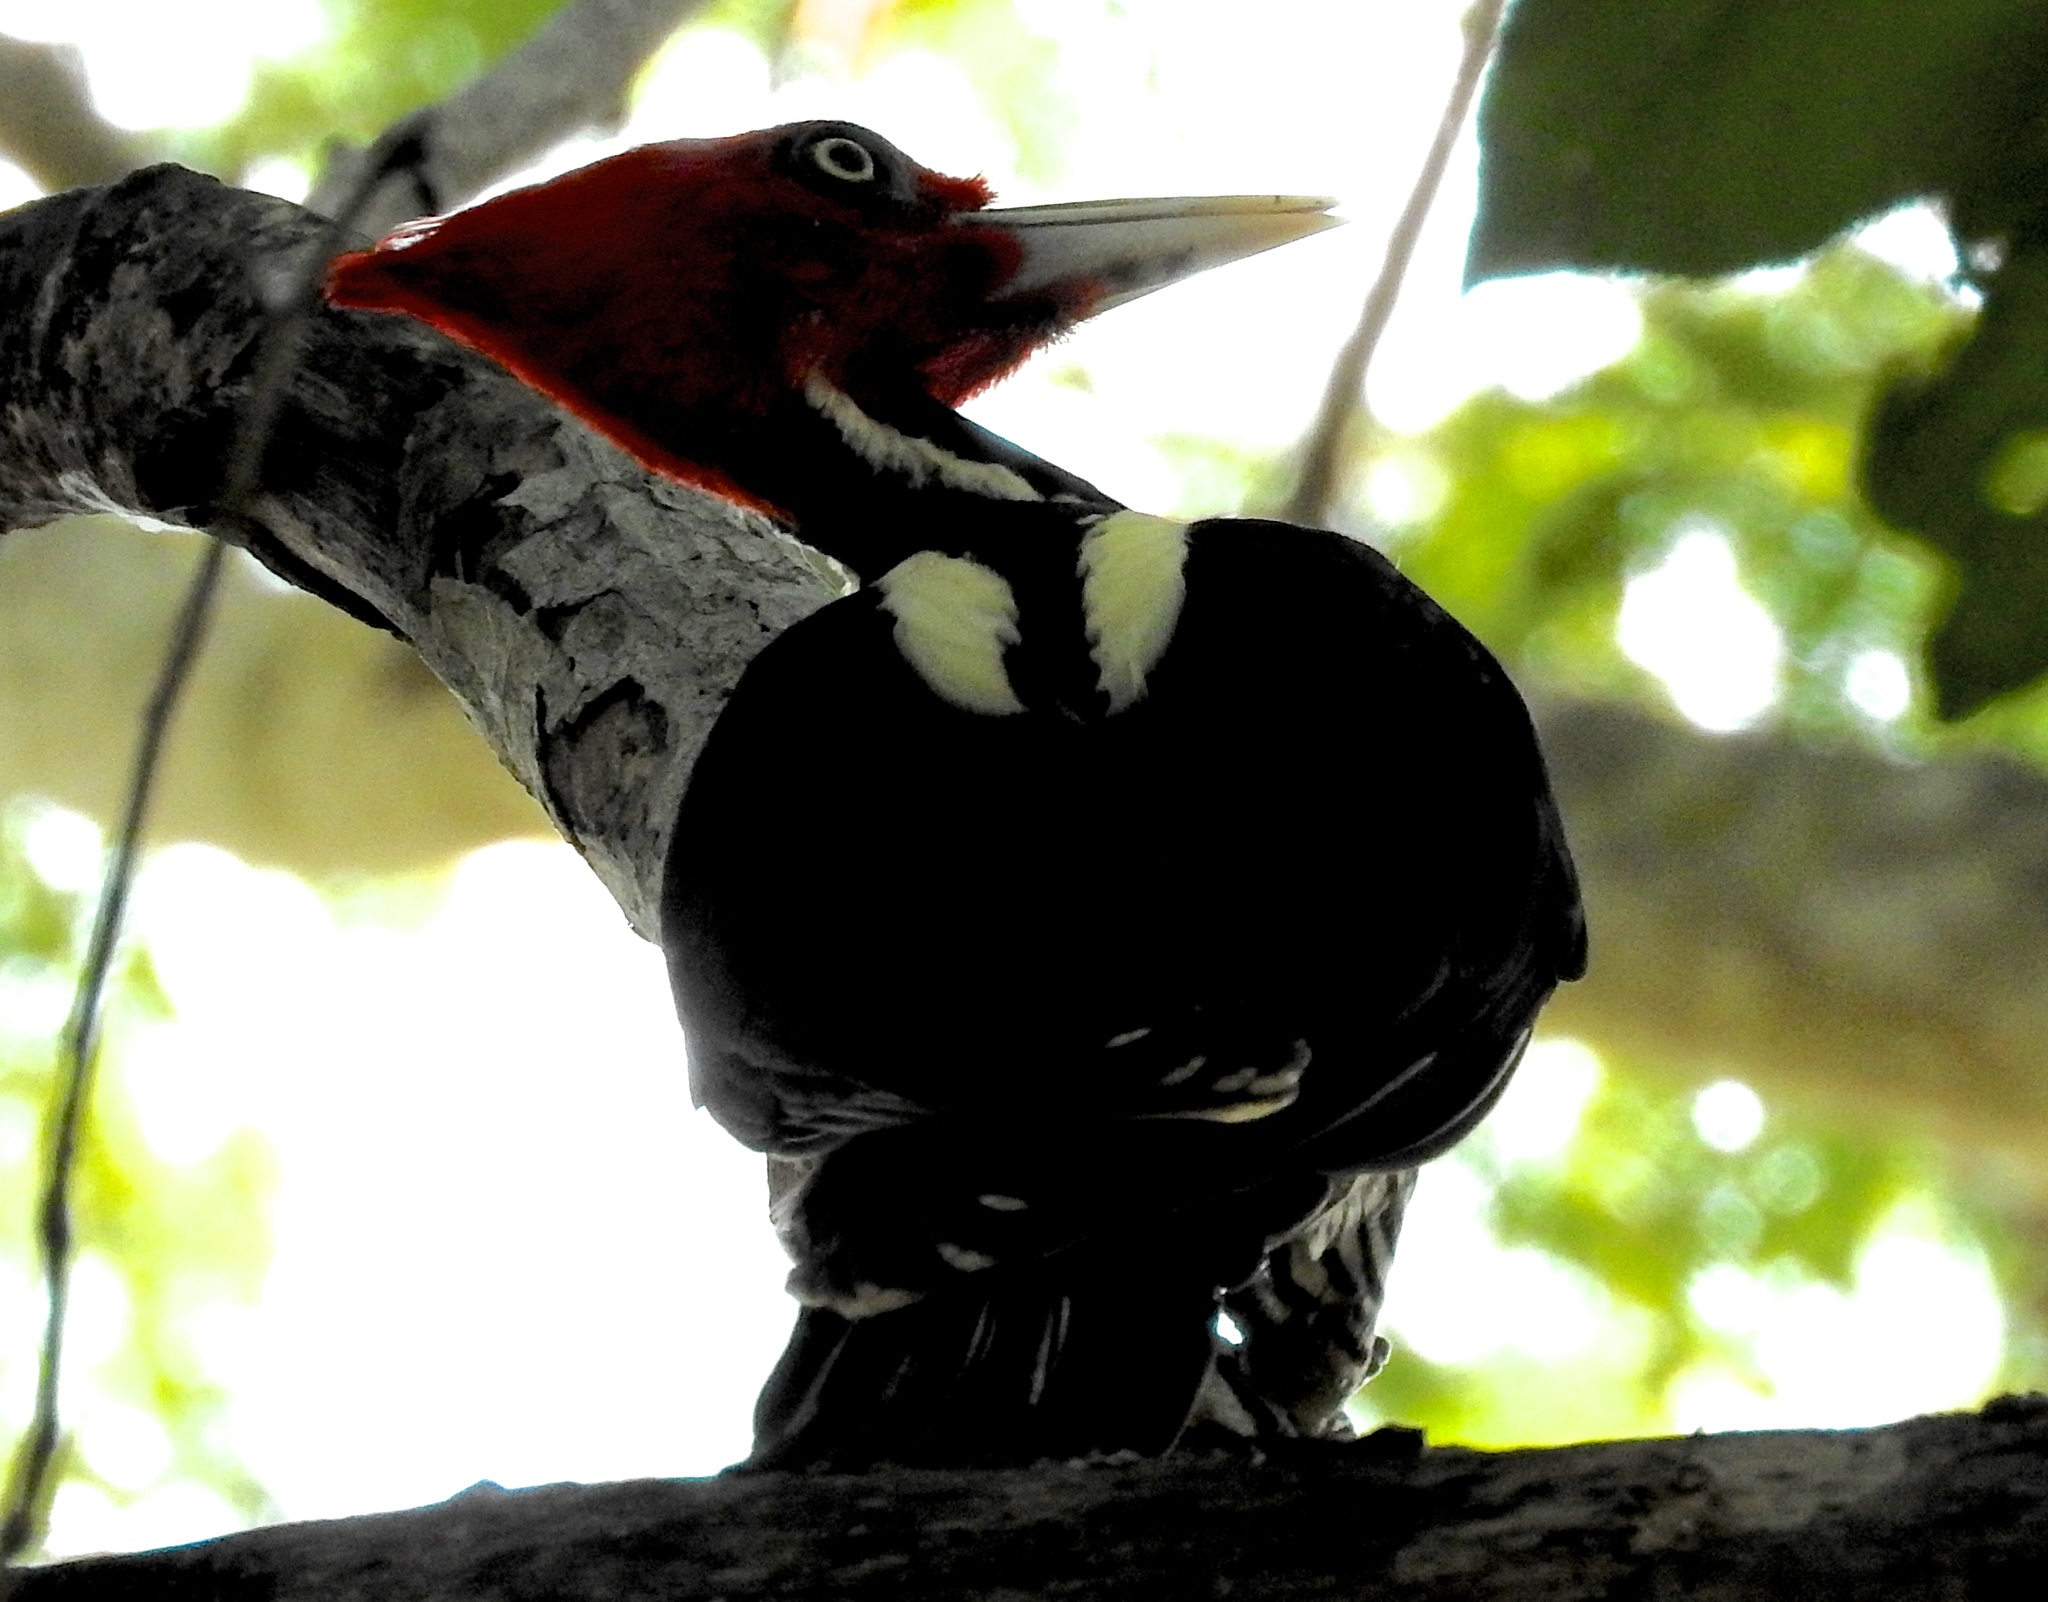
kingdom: Animalia
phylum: Chordata
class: Aves
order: Piciformes
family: Picidae
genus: Campephilus
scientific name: Campephilus guatemalensis
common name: Pale-billed woodpecker
